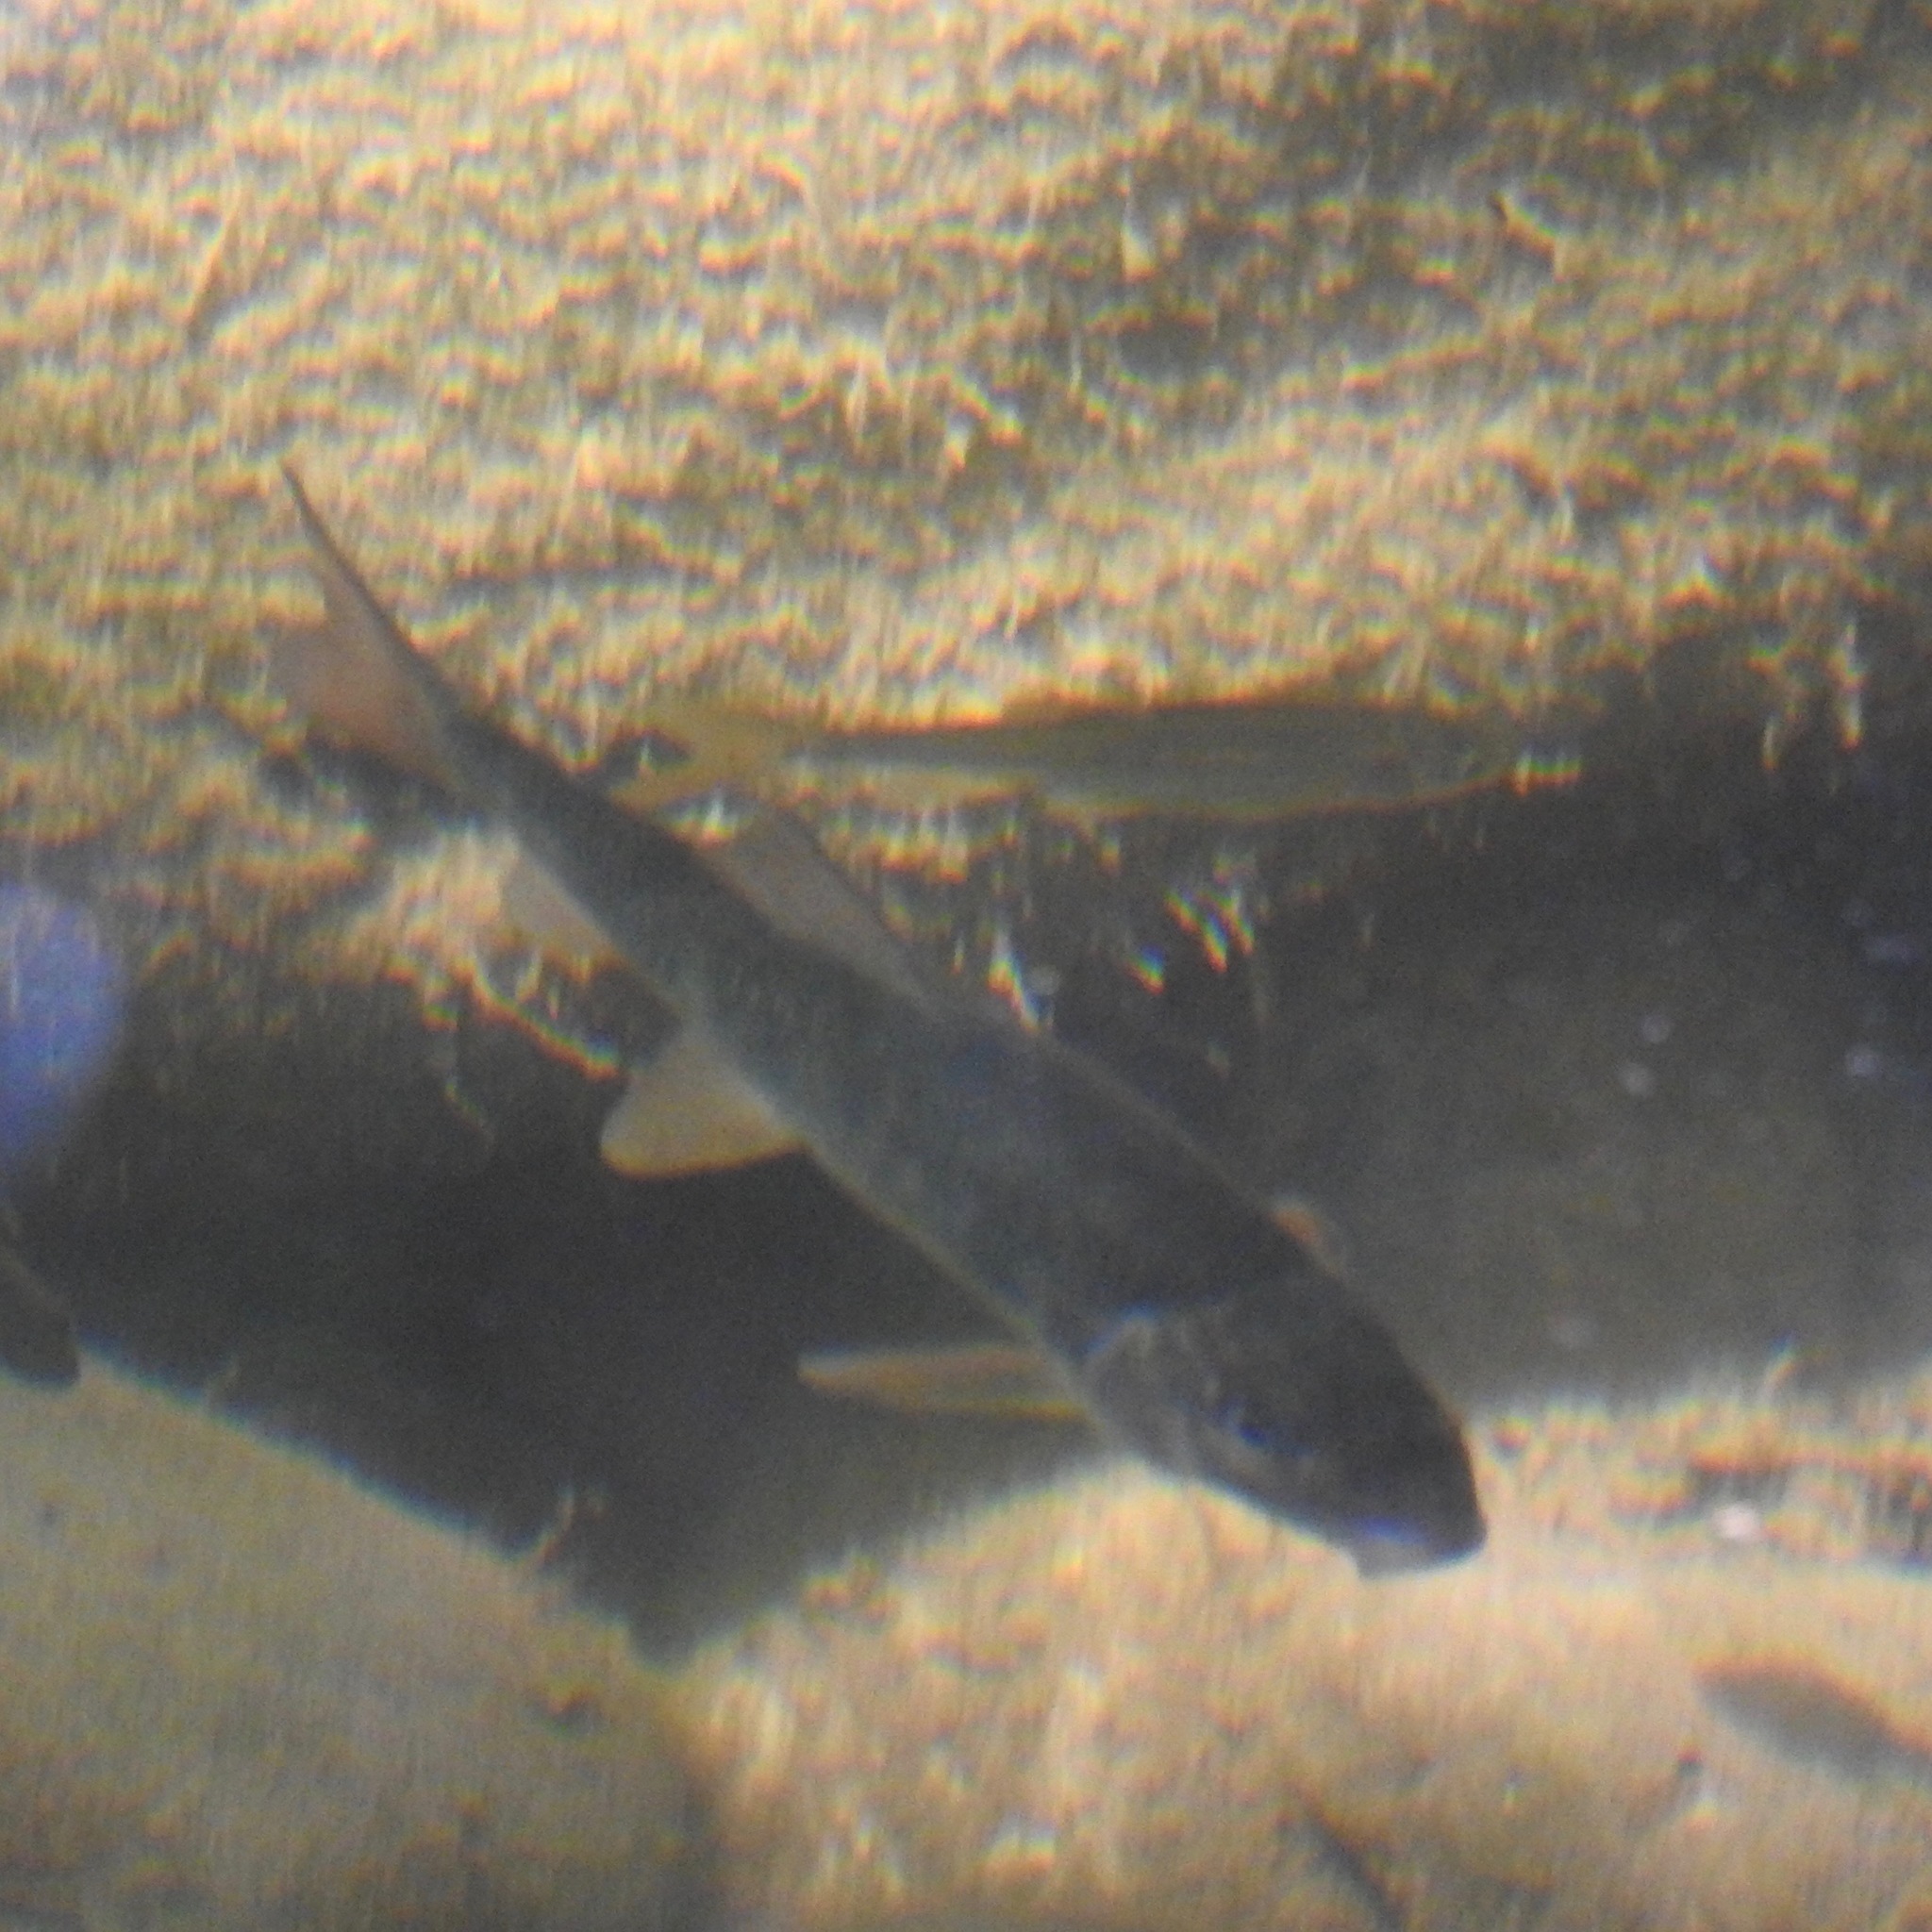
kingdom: Animalia
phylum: Chordata
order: Cypriniformes
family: Catostomidae
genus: Catostomus
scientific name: Catostomus occidentalis
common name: Goose lake sucker
